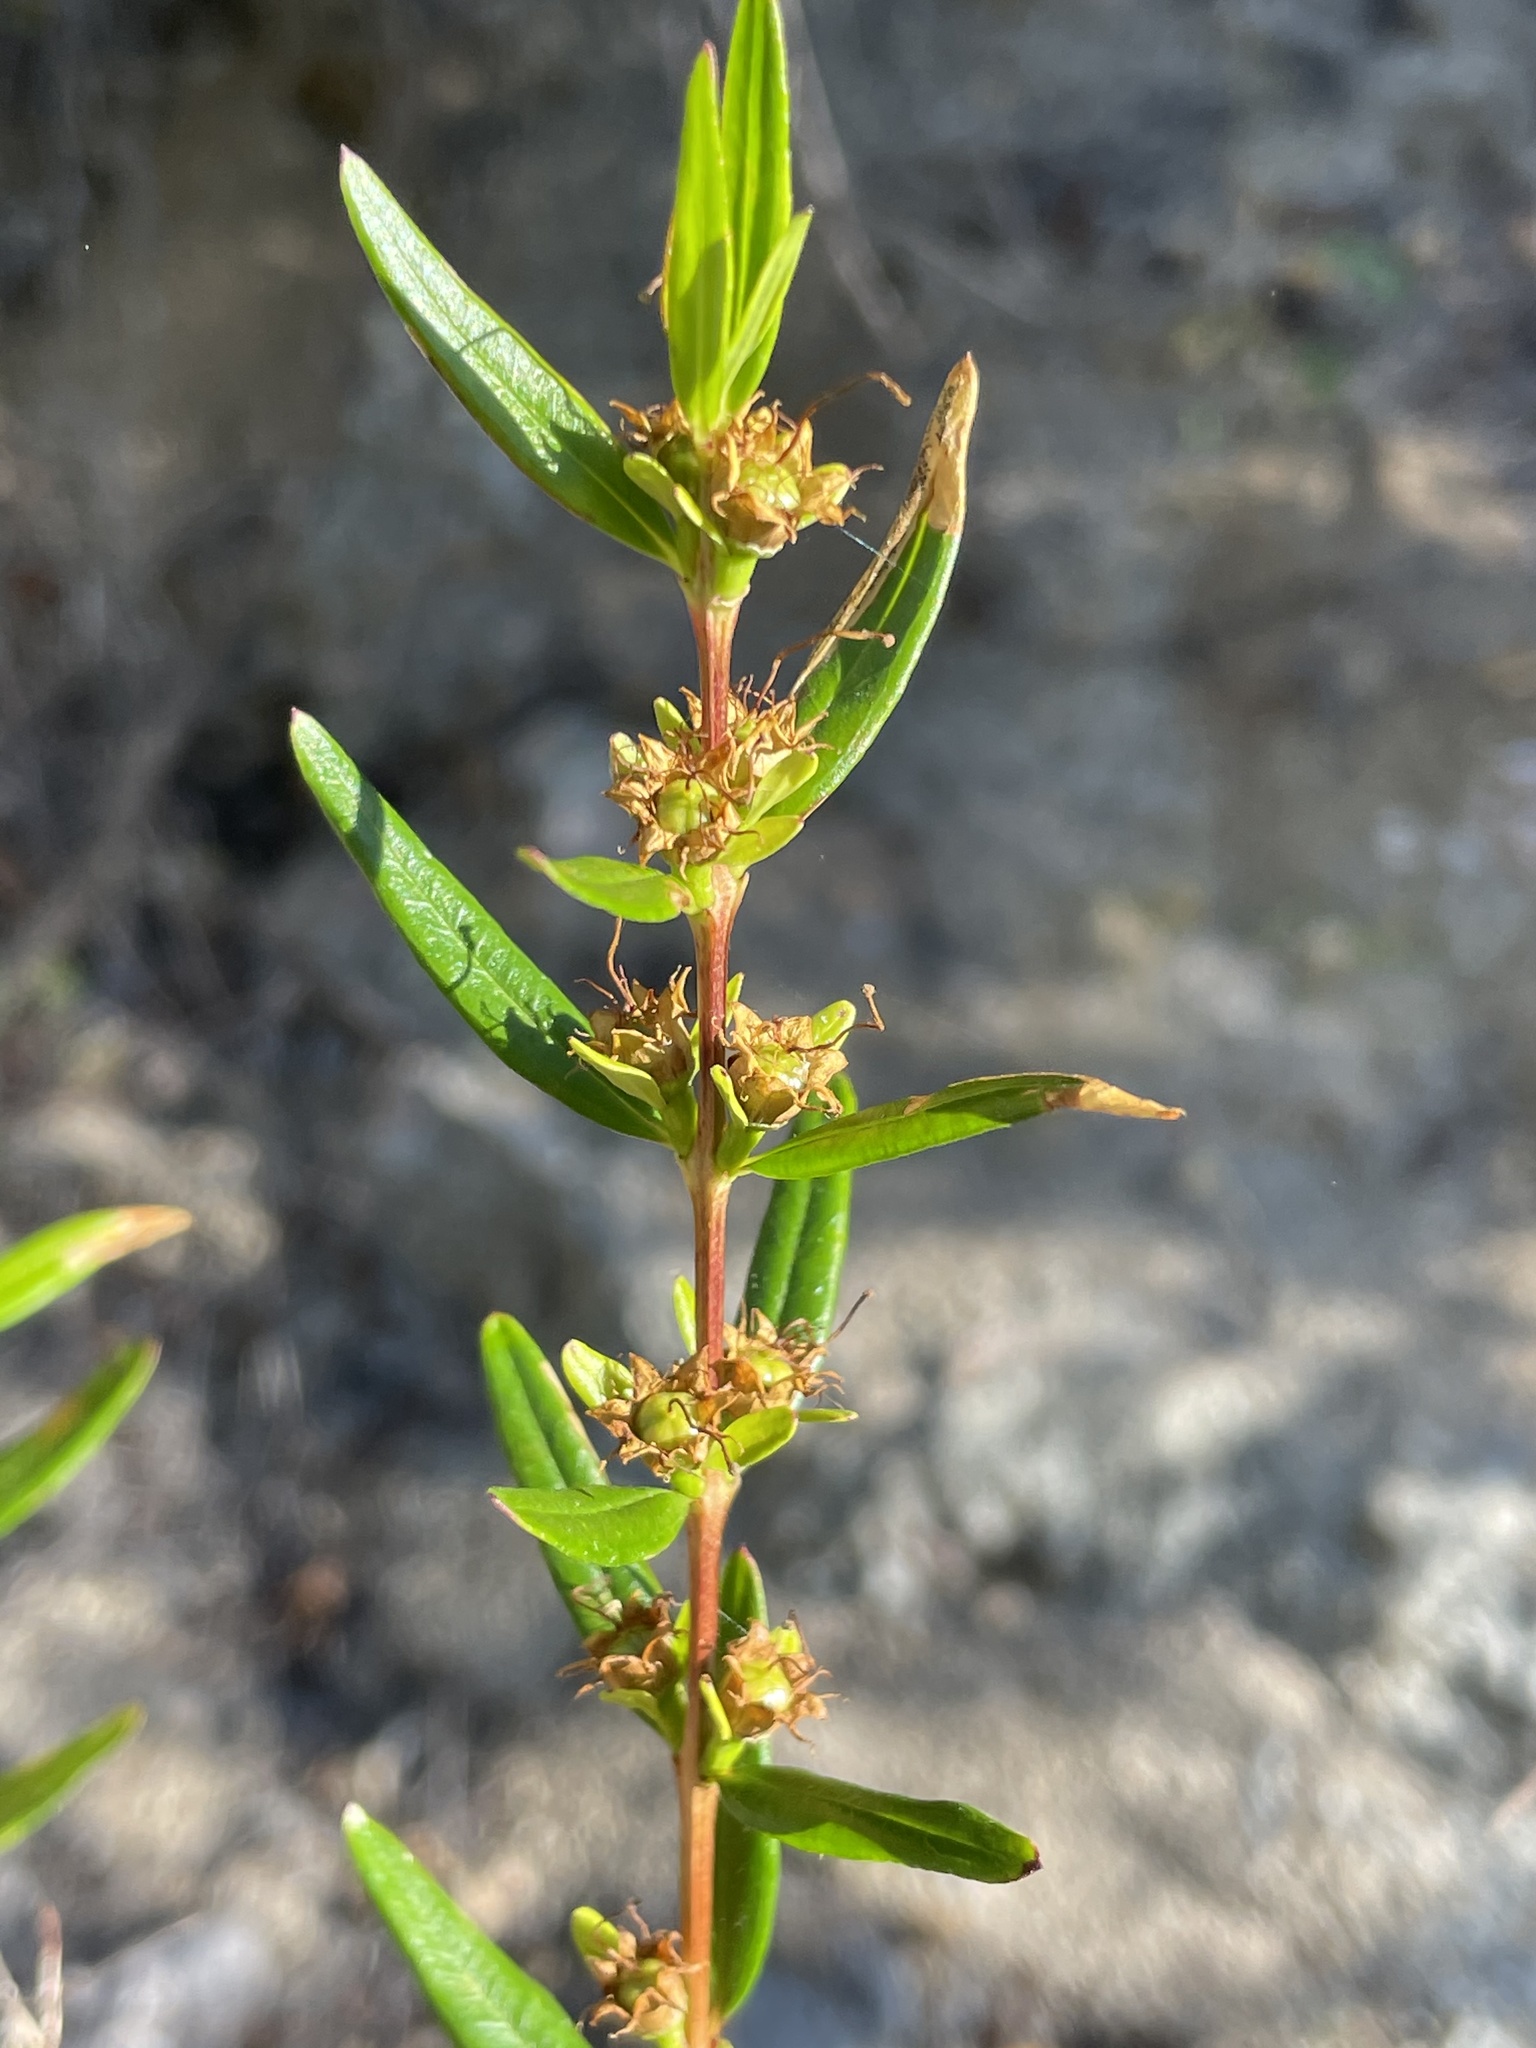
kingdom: Plantae
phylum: Tracheophyta
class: Magnoliopsida
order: Myrtales
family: Lythraceae
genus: Heimia
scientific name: Heimia salicifolia
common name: Willow-leaf heimia
